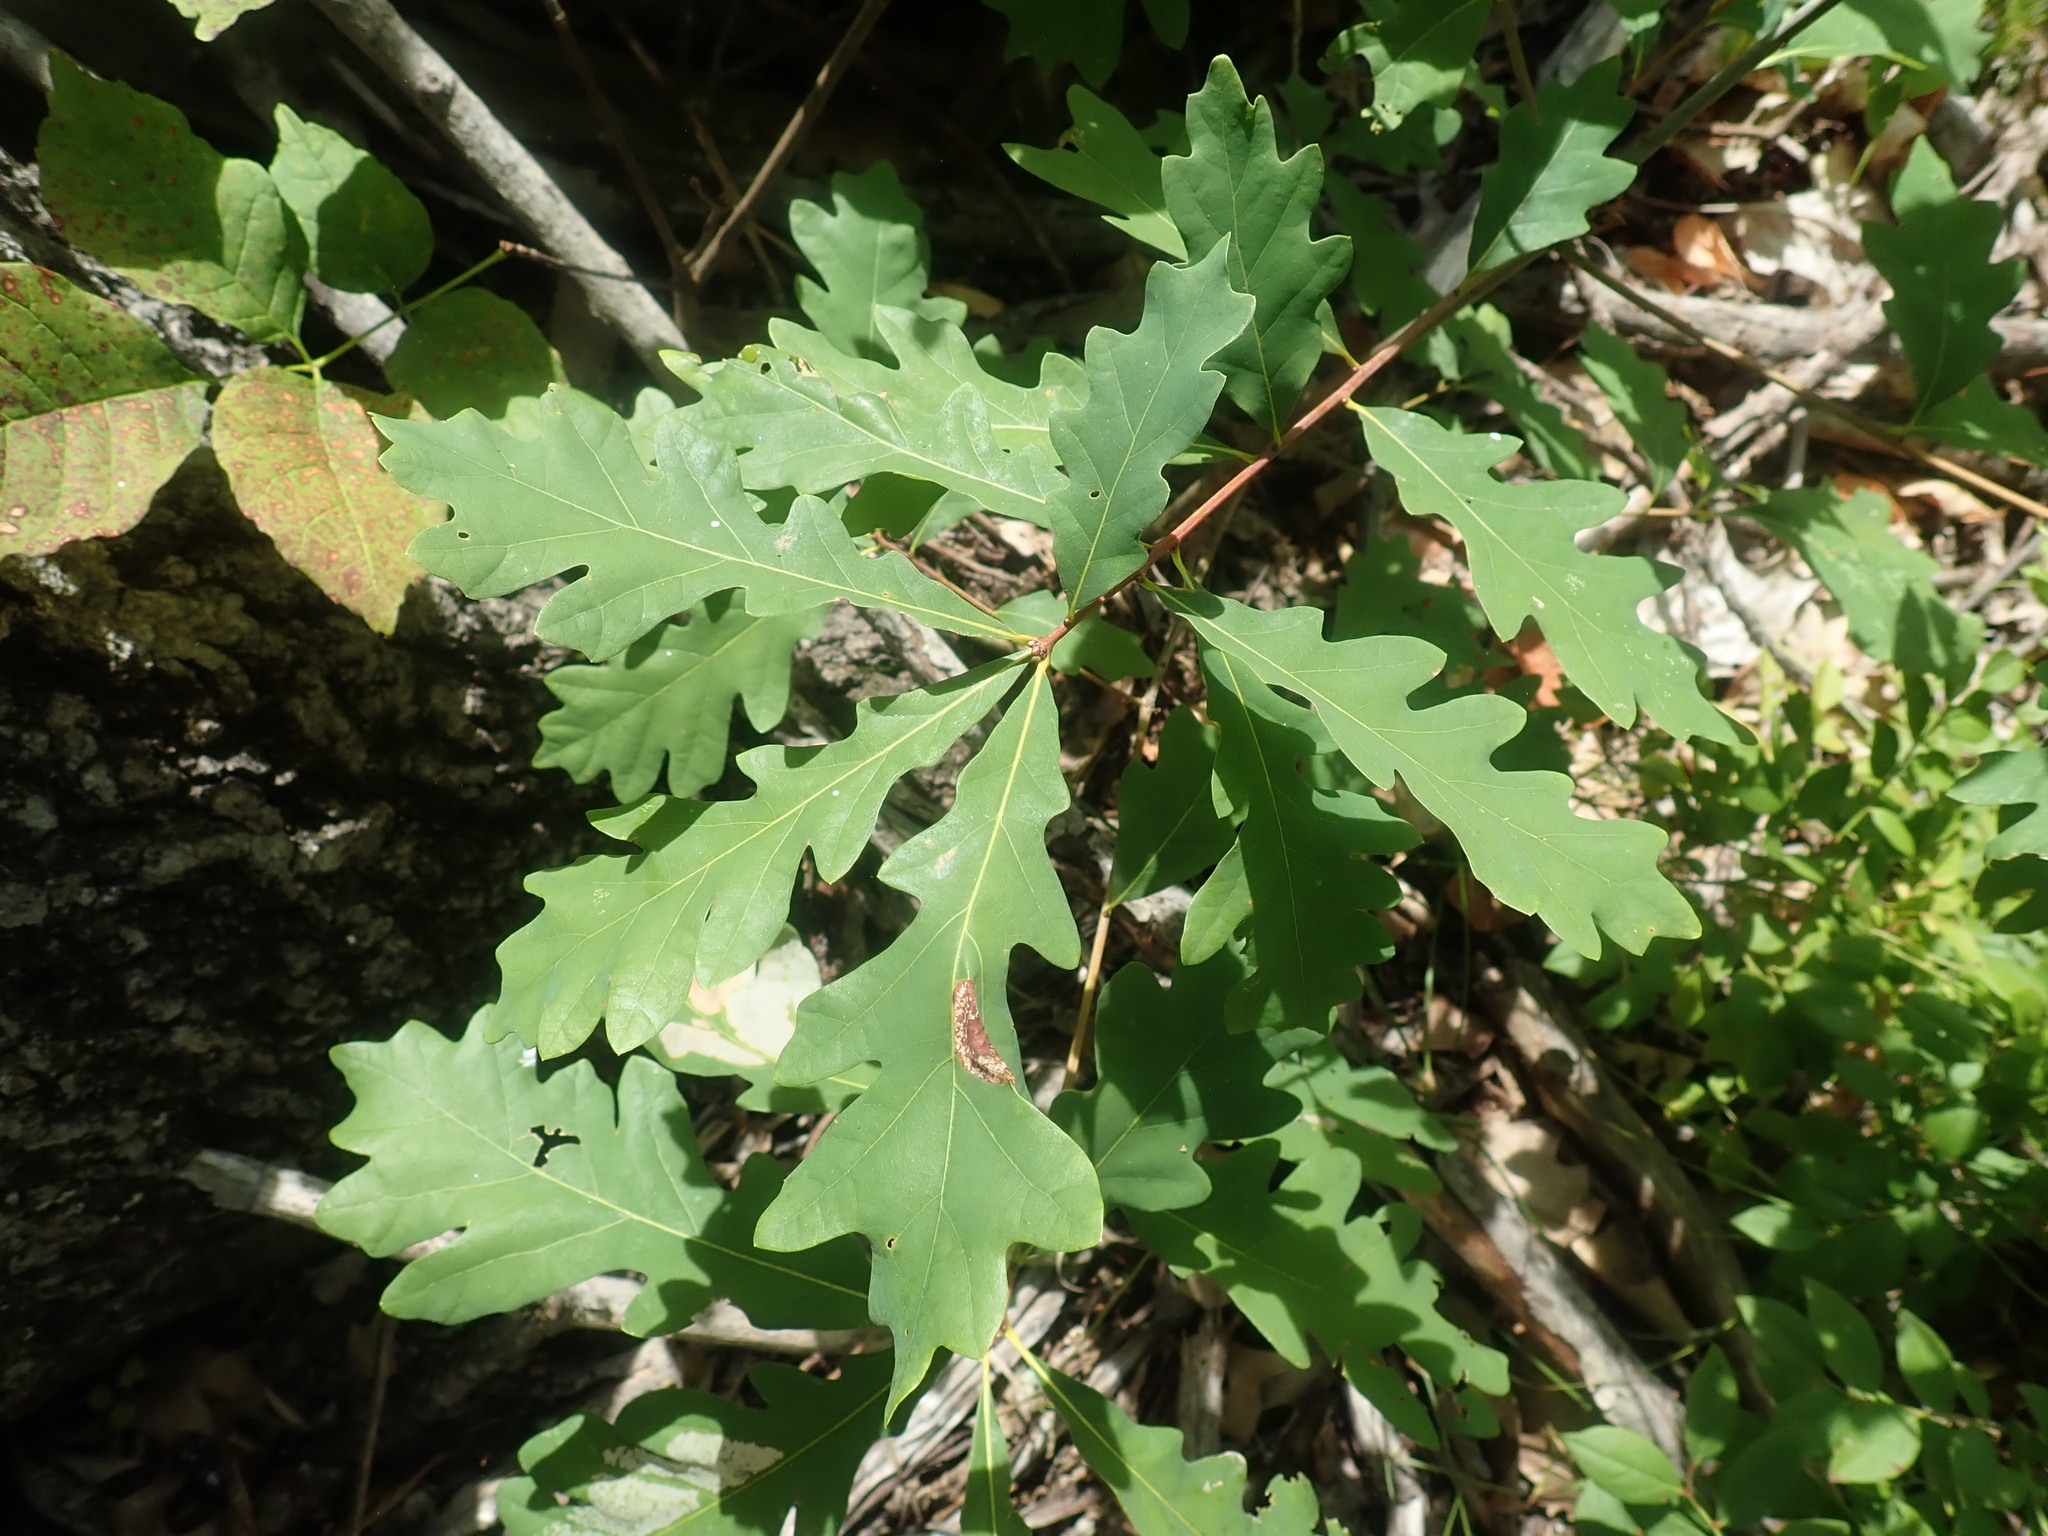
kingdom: Plantae
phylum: Tracheophyta
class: Magnoliopsida
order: Fagales
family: Fagaceae
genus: Quercus
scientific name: Quercus alba
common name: White oak
